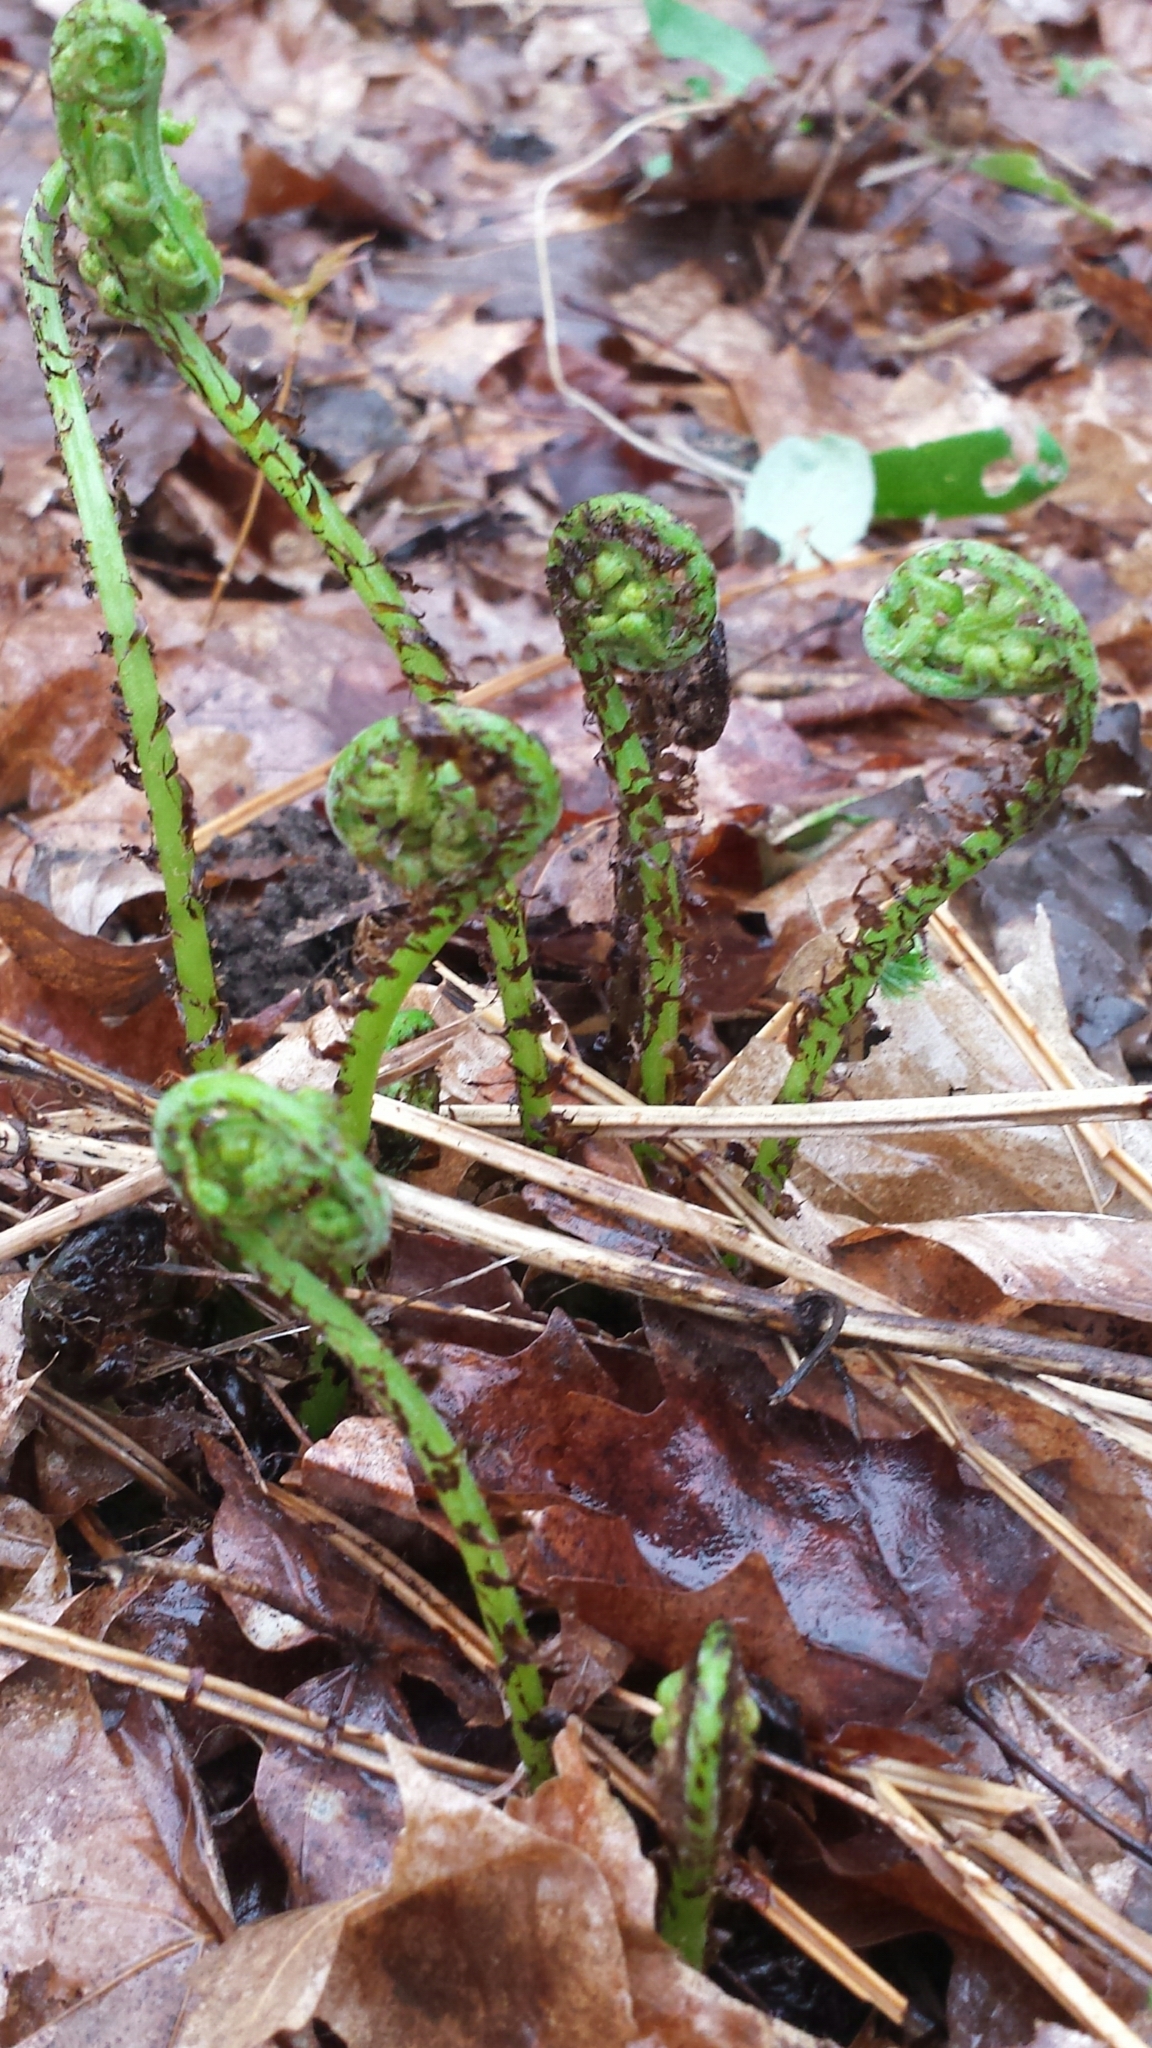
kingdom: Plantae
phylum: Tracheophyta
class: Polypodiopsida
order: Polypodiales
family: Athyriaceae
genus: Athyrium
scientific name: Athyrium angustum
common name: Northern lady fern
